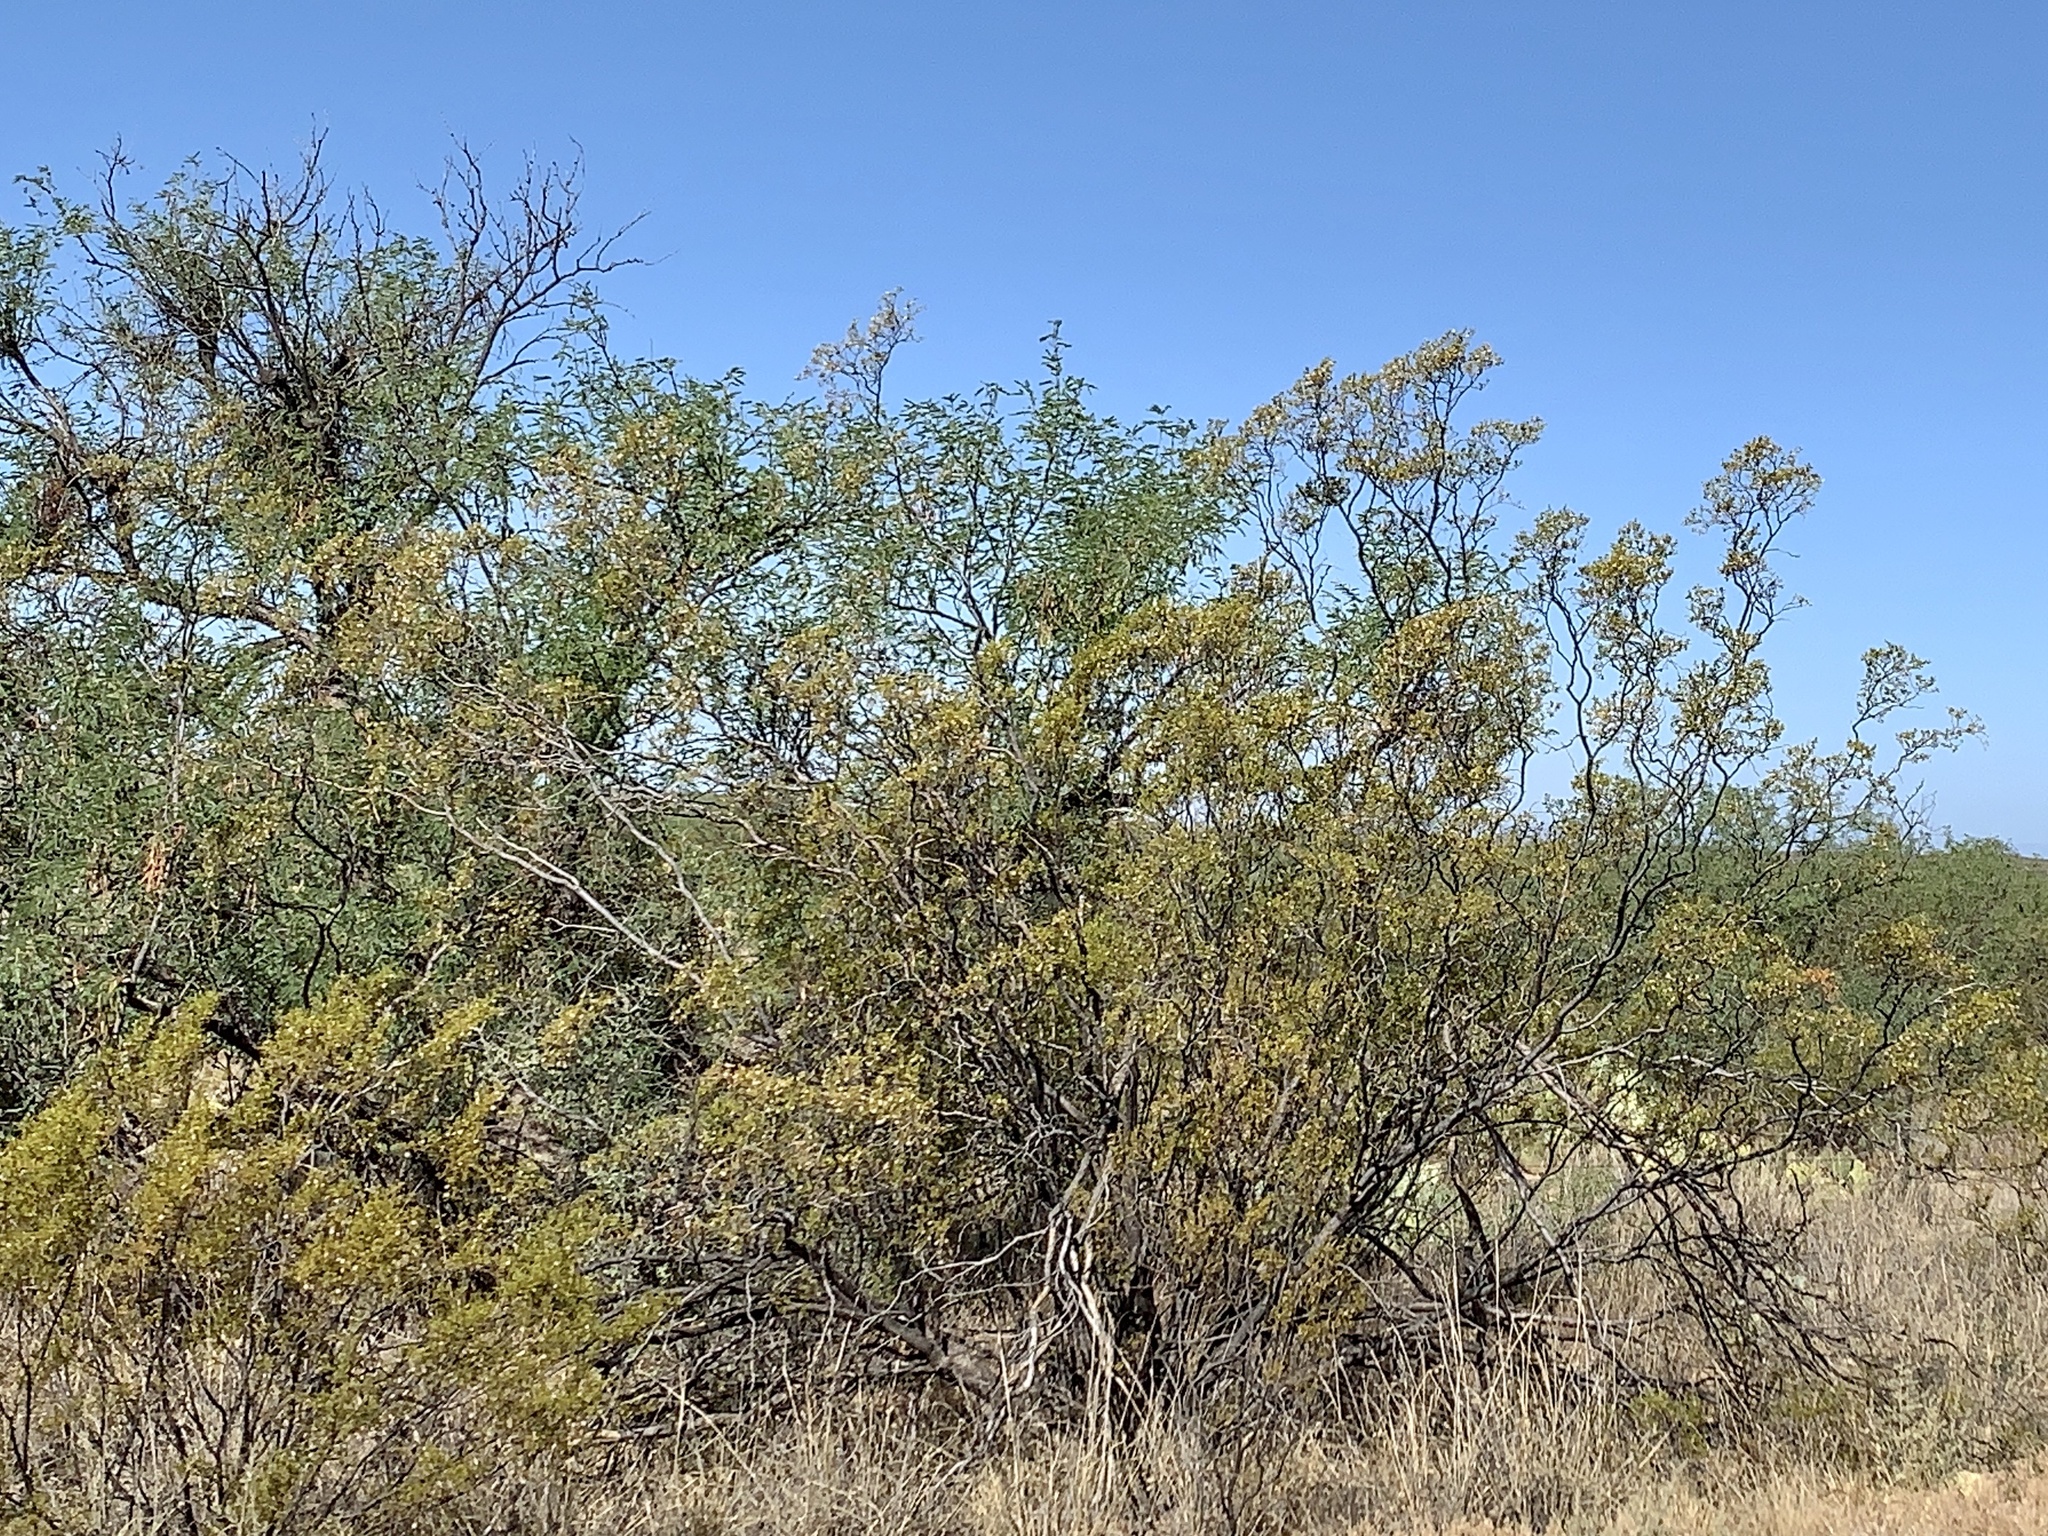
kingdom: Plantae
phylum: Tracheophyta
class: Magnoliopsida
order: Zygophyllales
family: Zygophyllaceae
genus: Larrea
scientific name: Larrea tridentata
